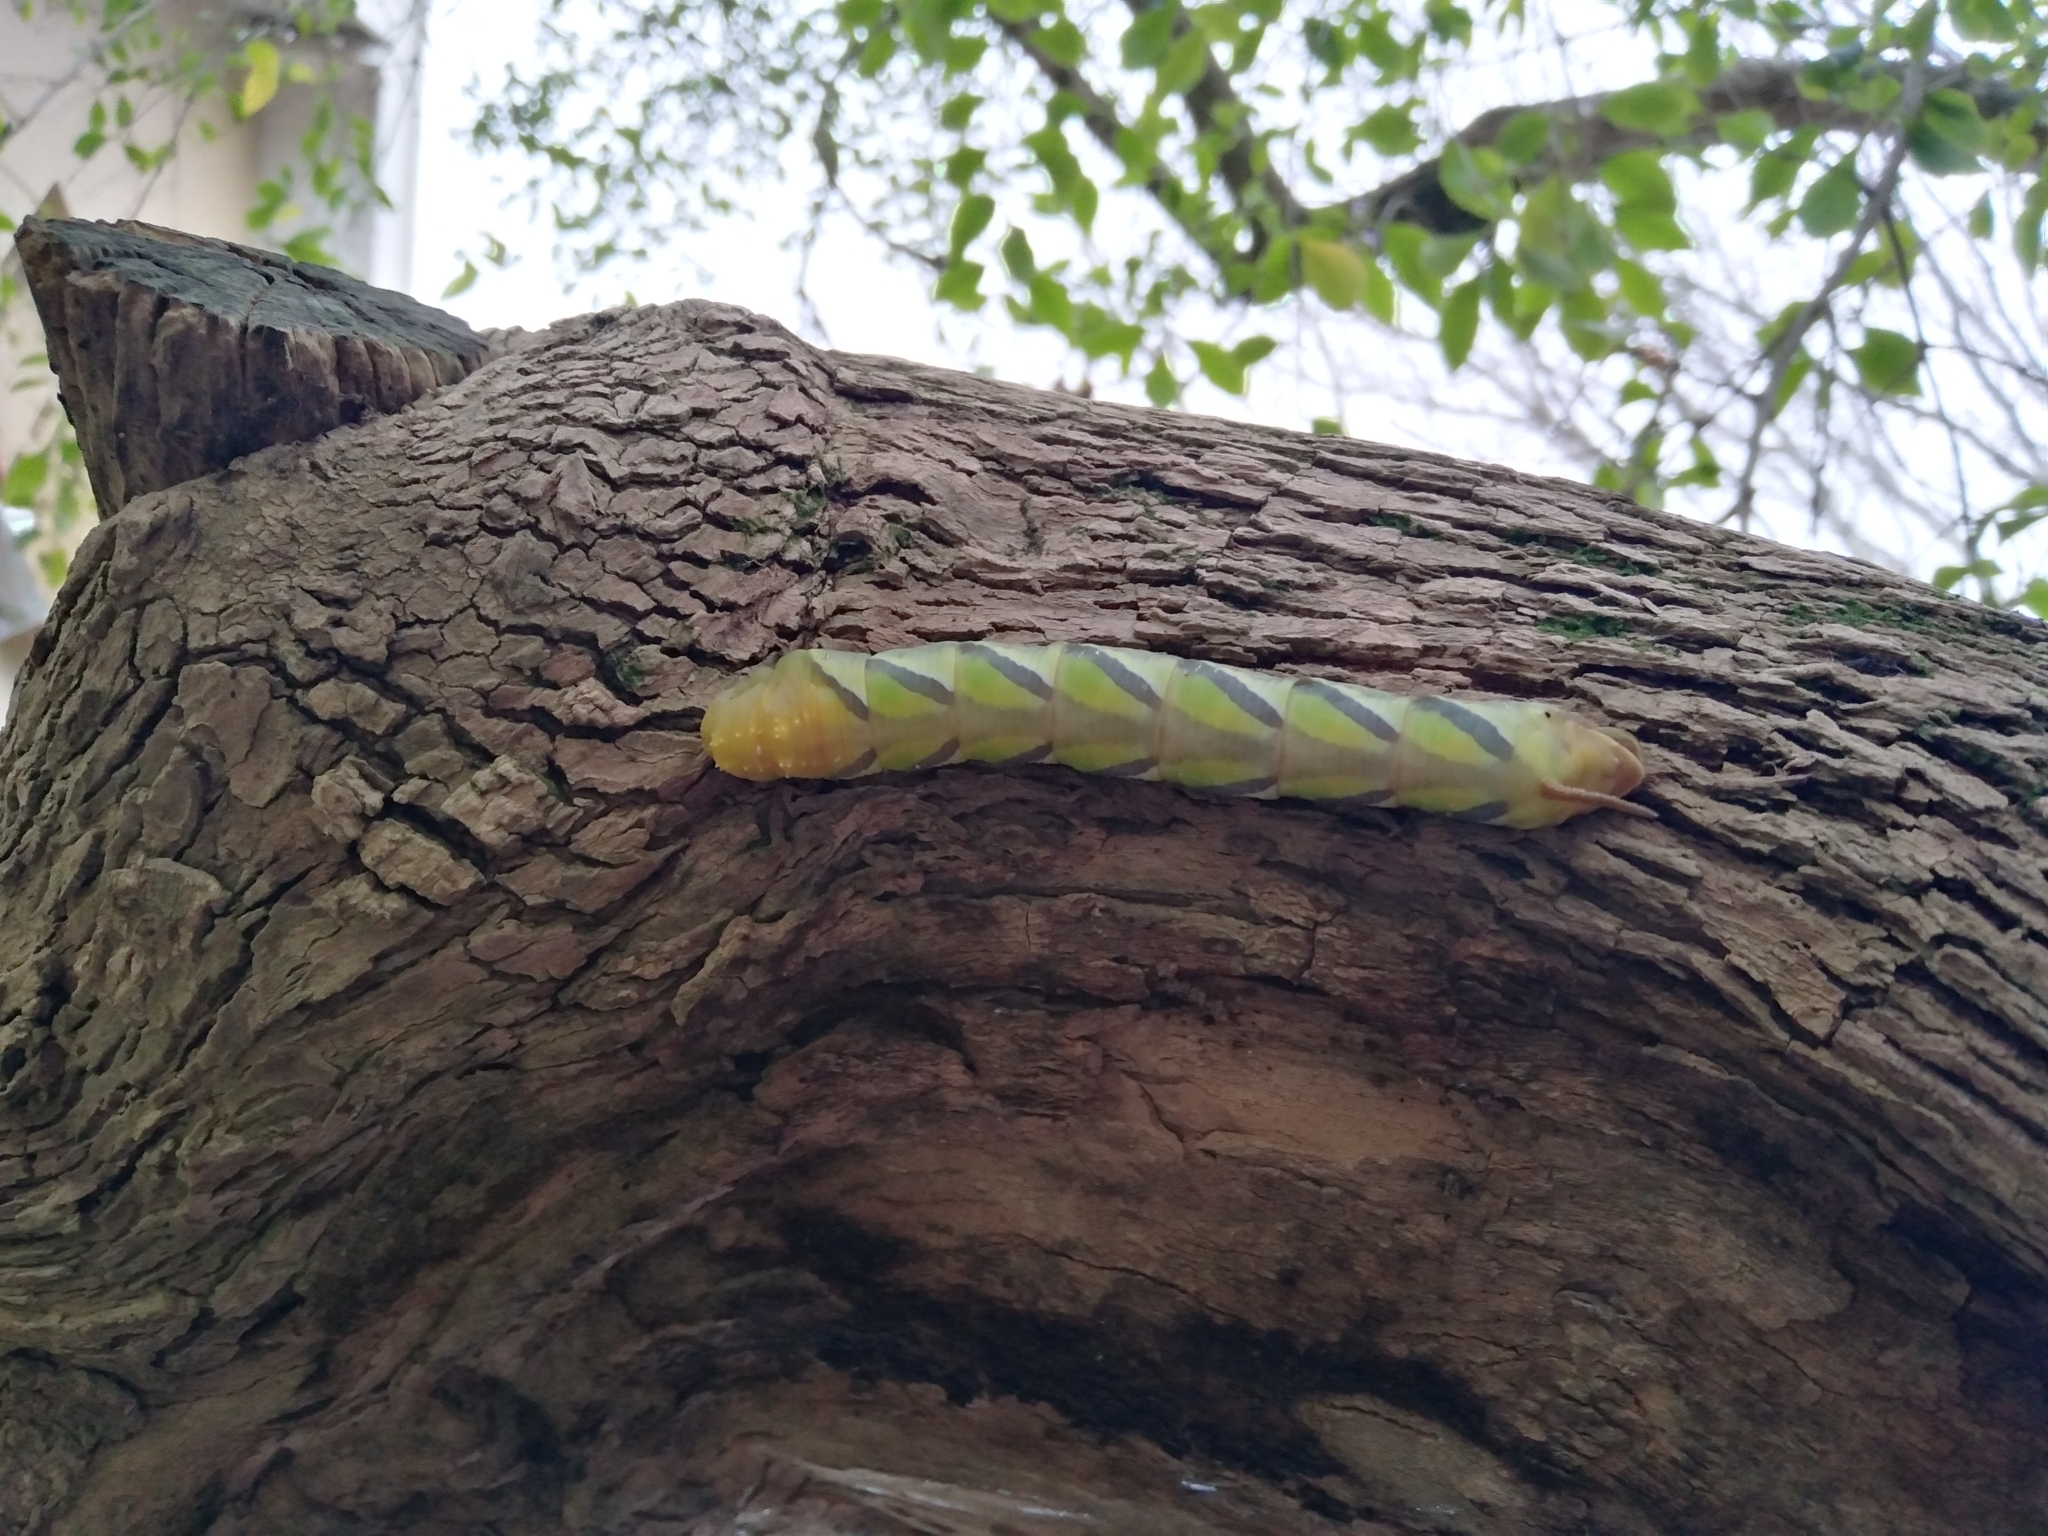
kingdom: Animalia
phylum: Arthropoda
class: Insecta
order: Lepidoptera
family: Sphingidae
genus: Coelonia
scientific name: Coelonia fulvinotata
